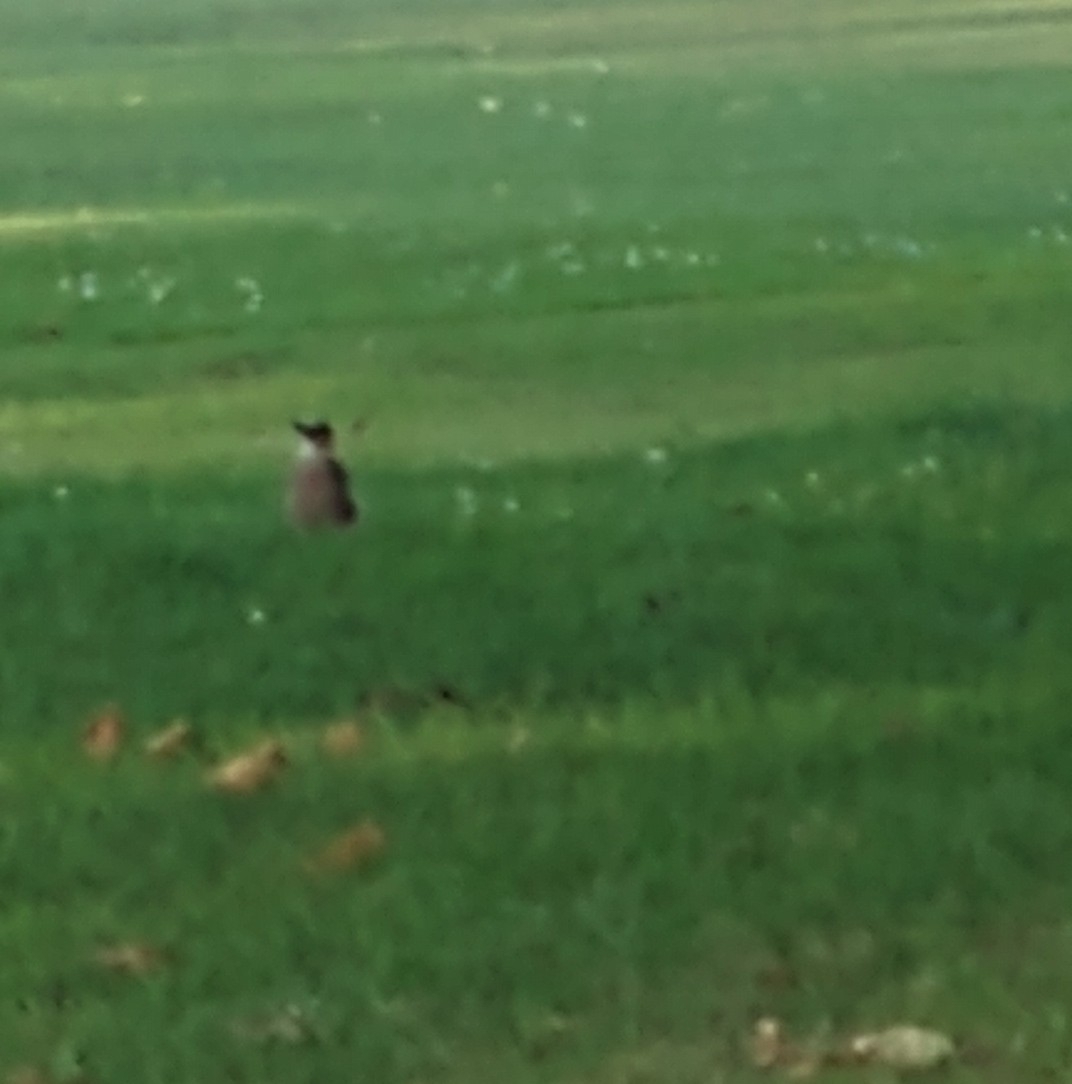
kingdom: Animalia
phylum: Chordata
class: Aves
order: Passeriformes
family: Corvidae
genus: Garrulus
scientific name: Garrulus glandarius
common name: Eurasian jay
